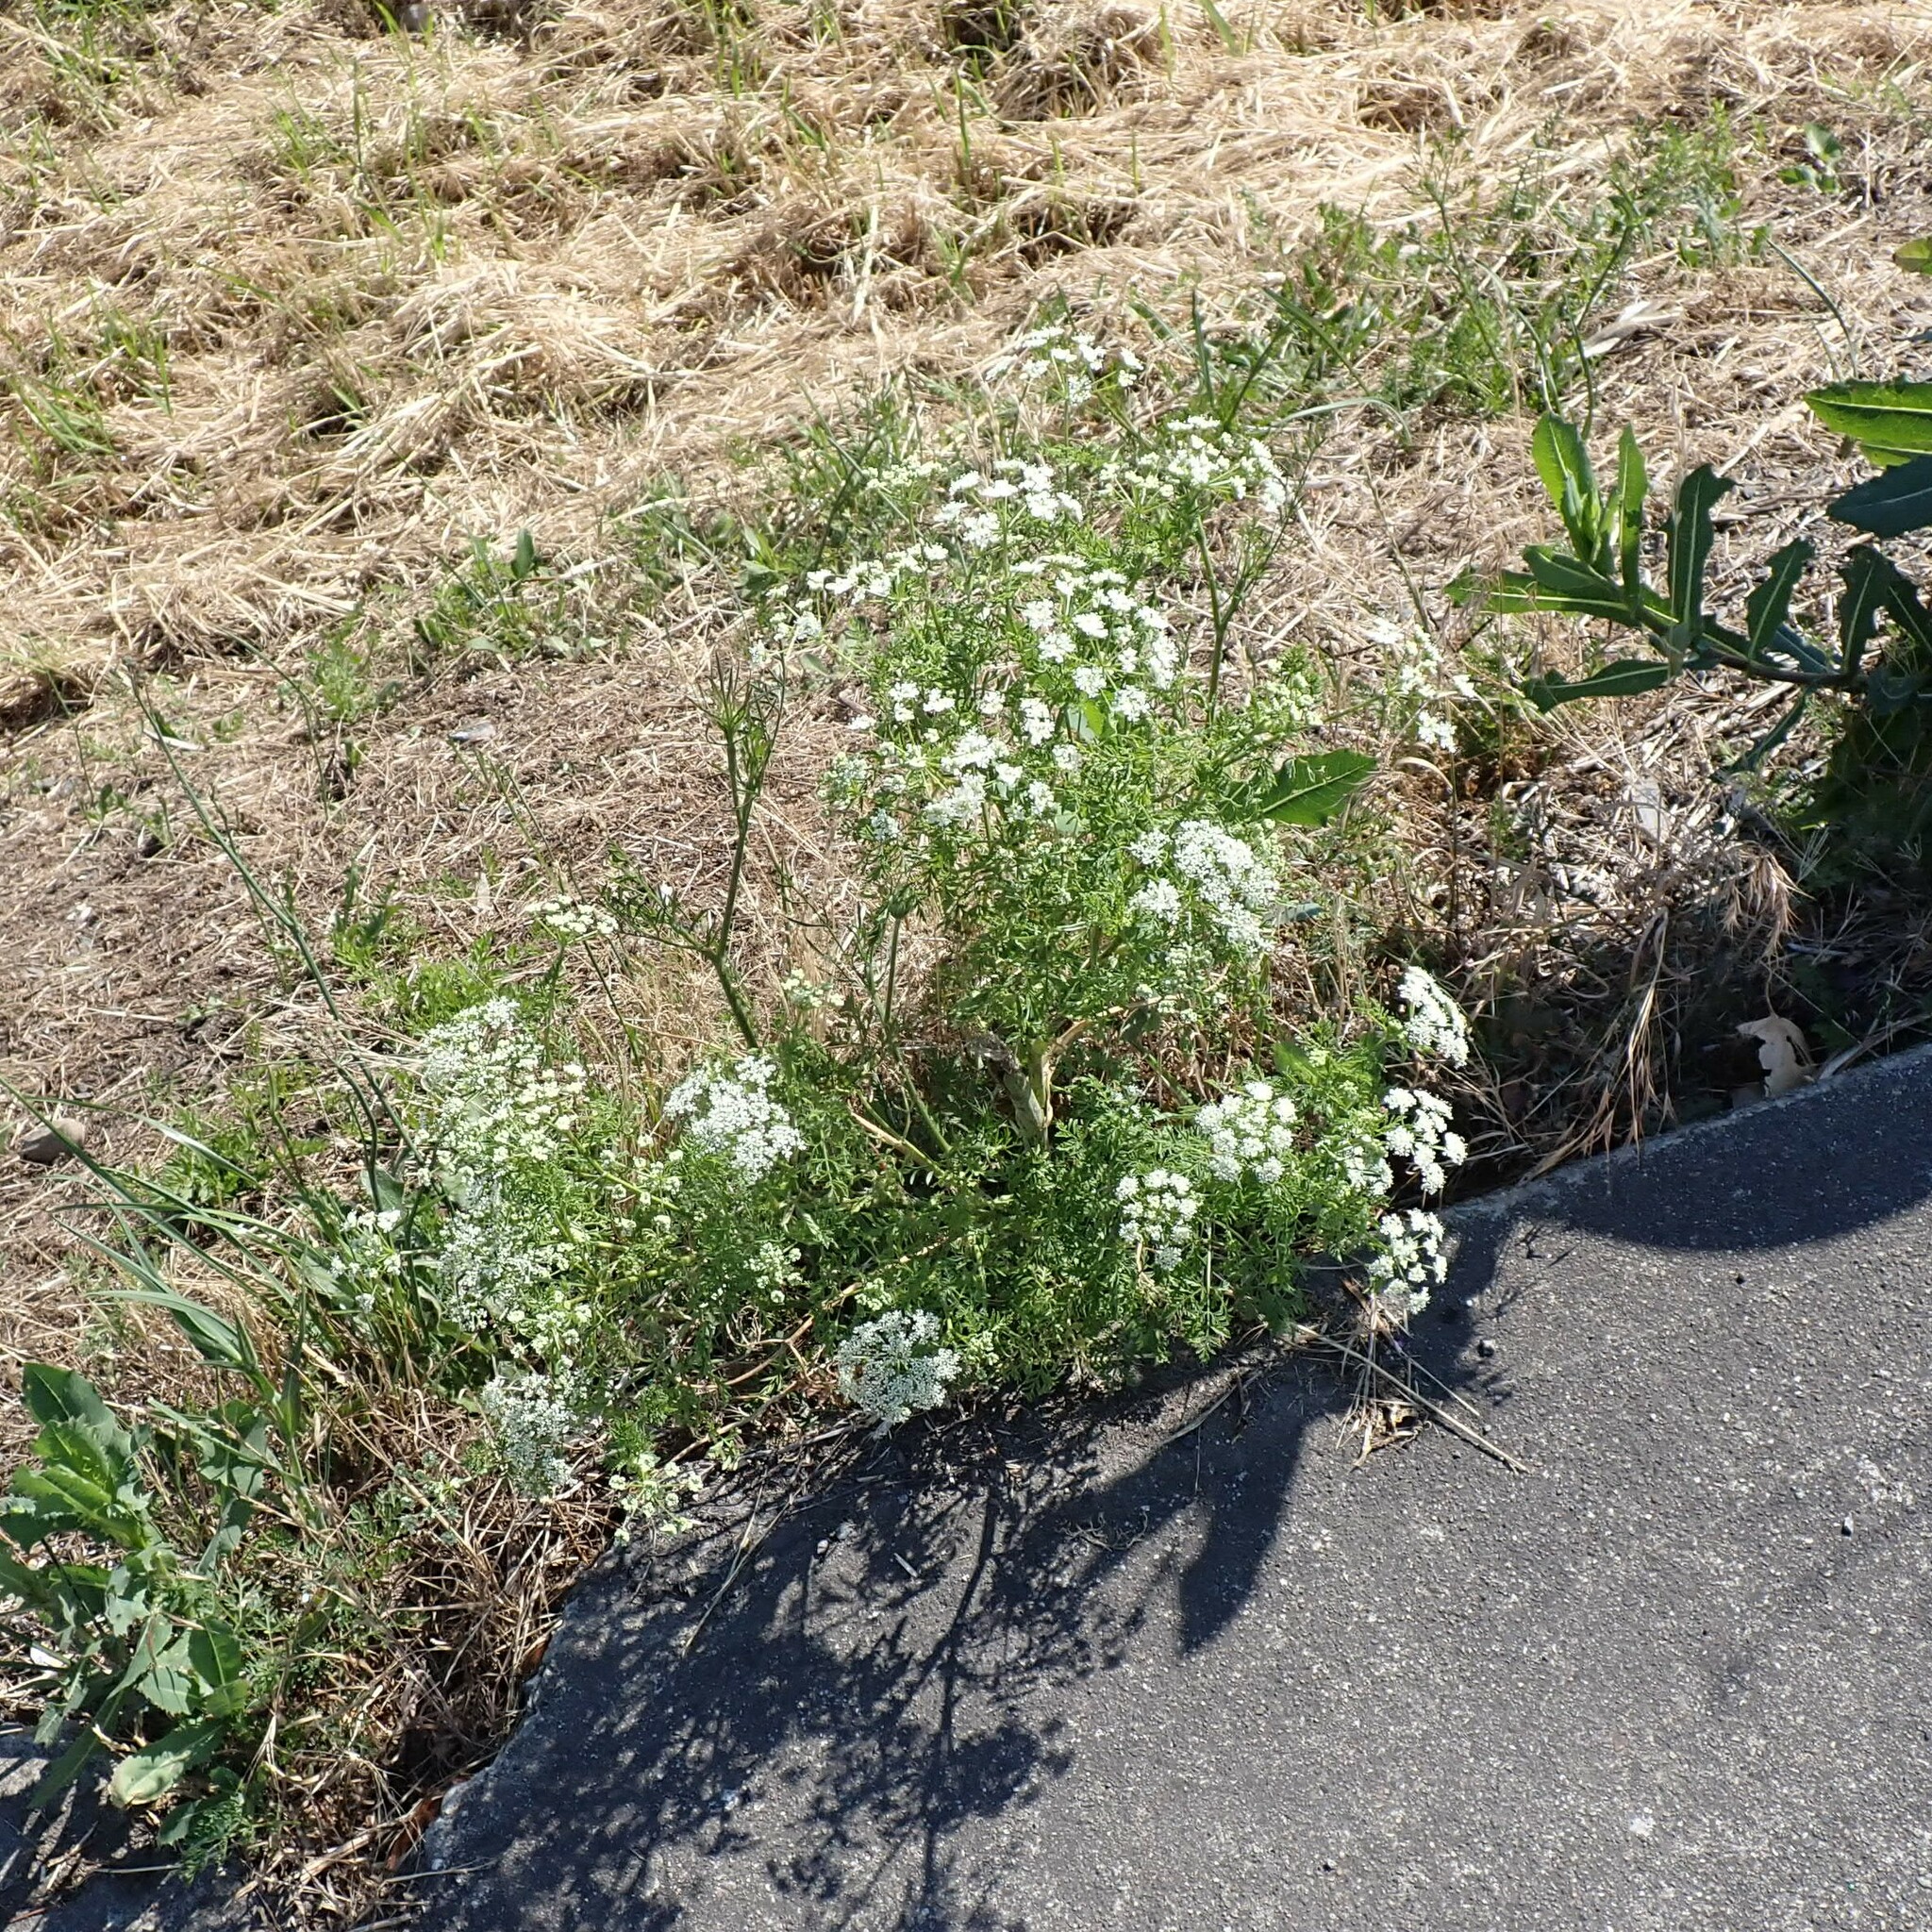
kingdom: Plantae
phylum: Tracheophyta
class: Magnoliopsida
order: Apiales
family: Apiaceae
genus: Conium
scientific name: Conium maculatum
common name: Hemlock
